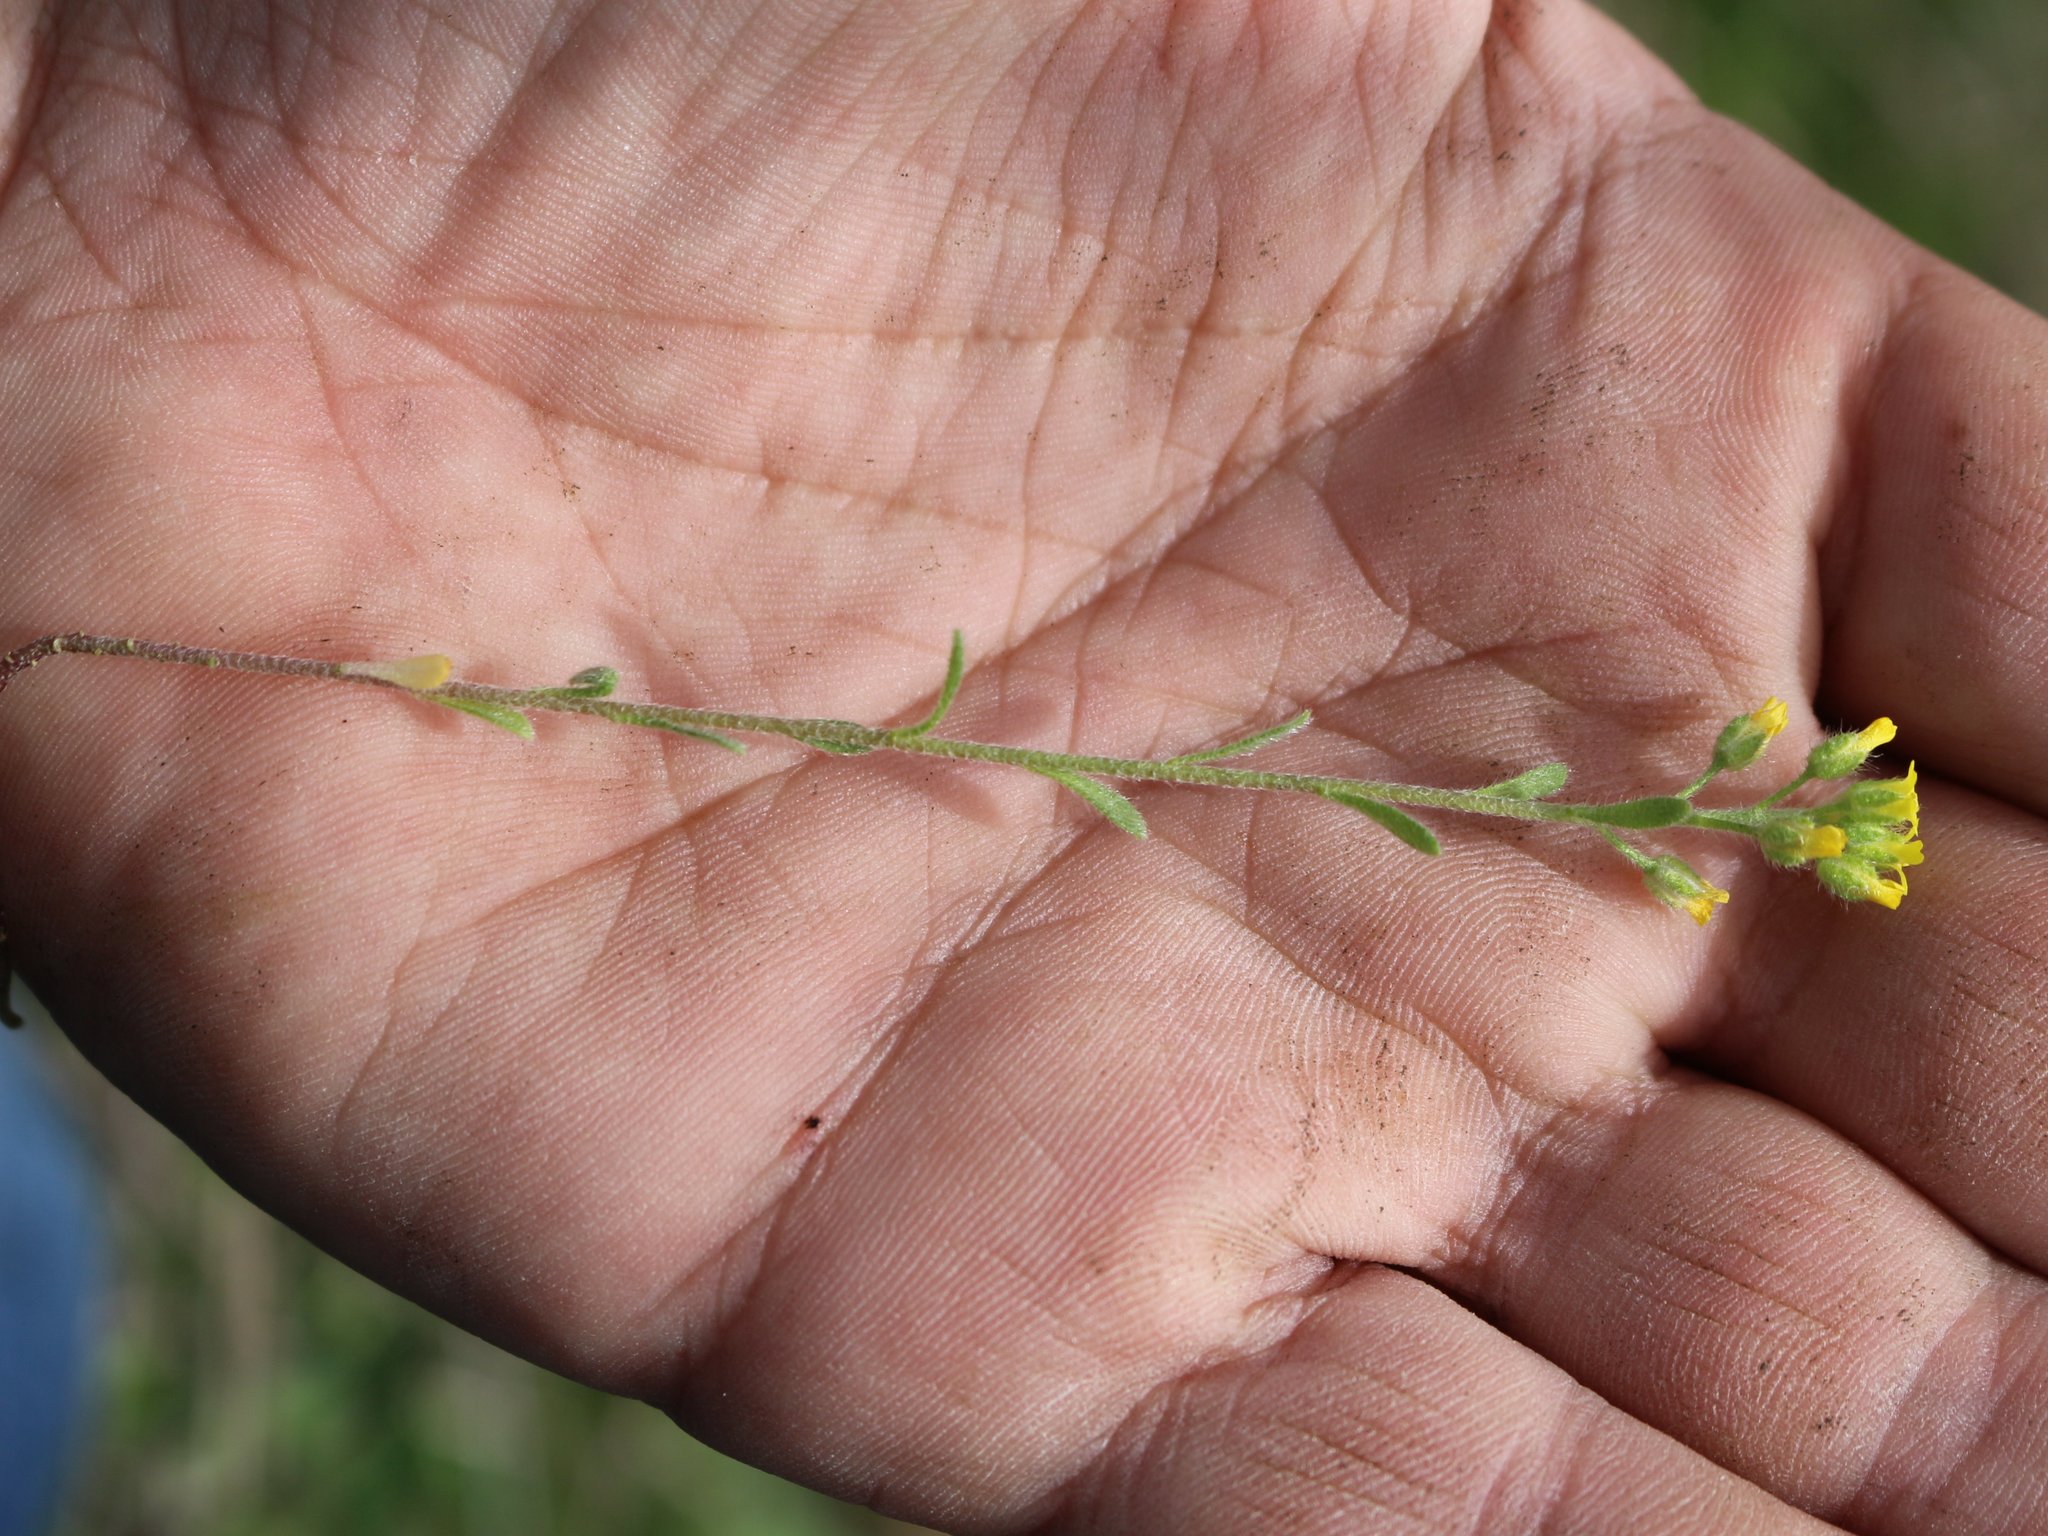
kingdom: Plantae
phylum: Tracheophyta
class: Magnoliopsida
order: Brassicales
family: Brassicaceae
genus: Alyssum
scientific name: Alyssum turkestanicum
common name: Desert alyssum
